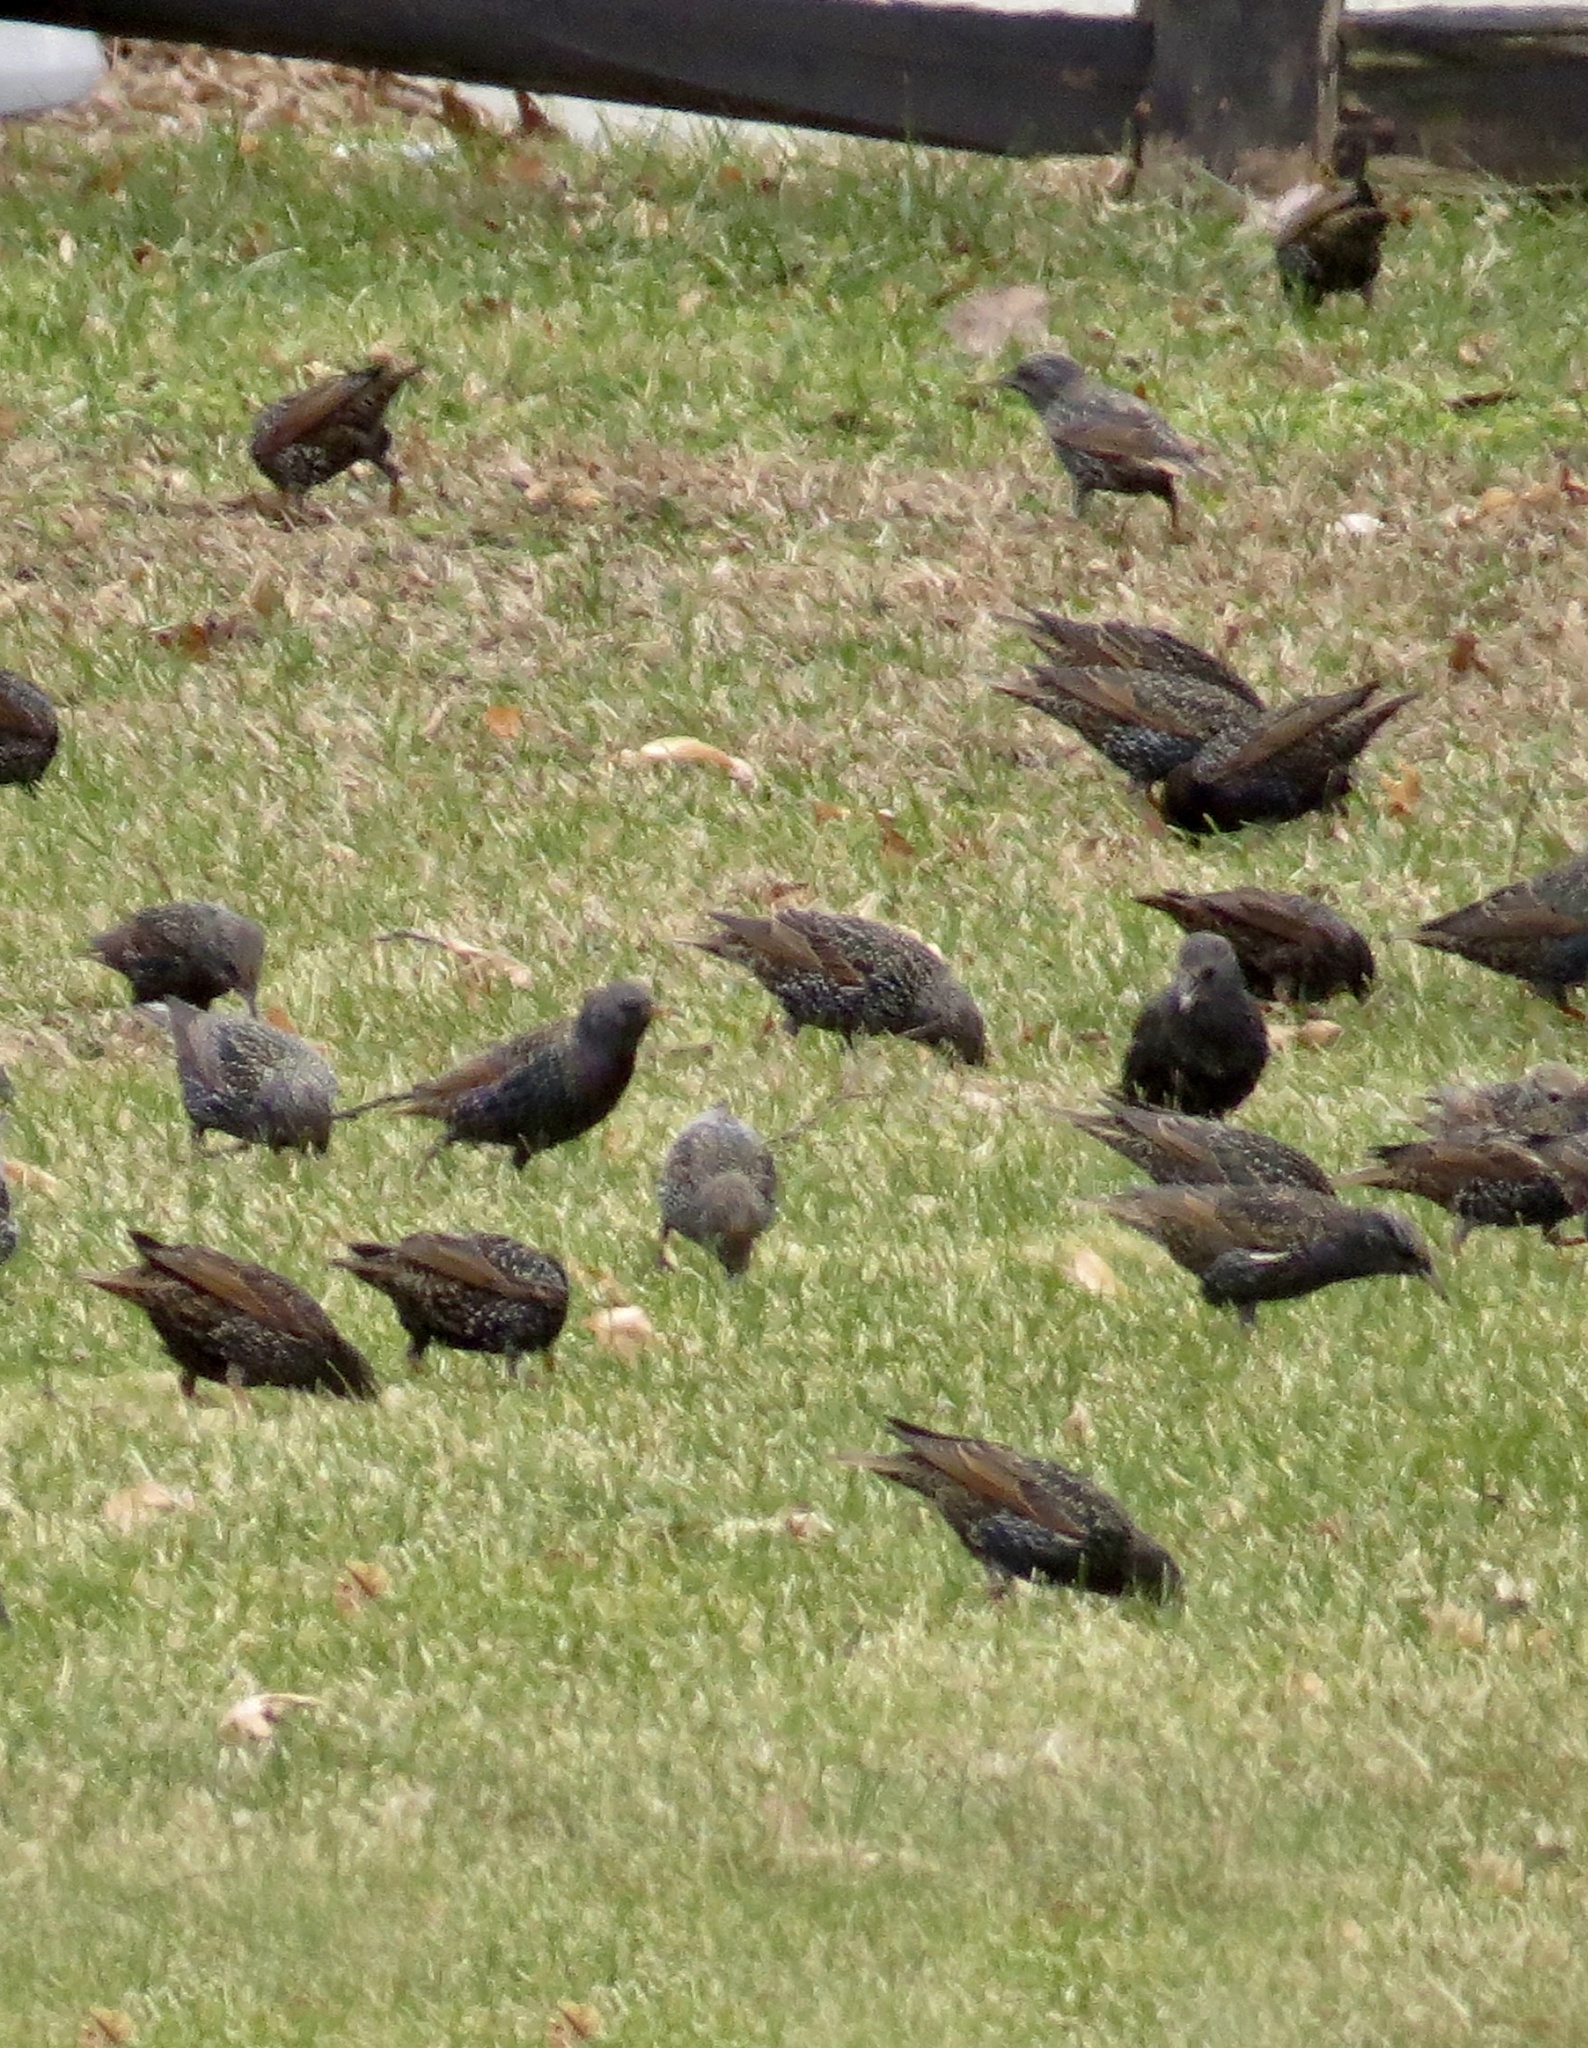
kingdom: Animalia
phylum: Chordata
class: Aves
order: Passeriformes
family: Sturnidae
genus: Sturnus
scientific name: Sturnus vulgaris
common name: Common starling
